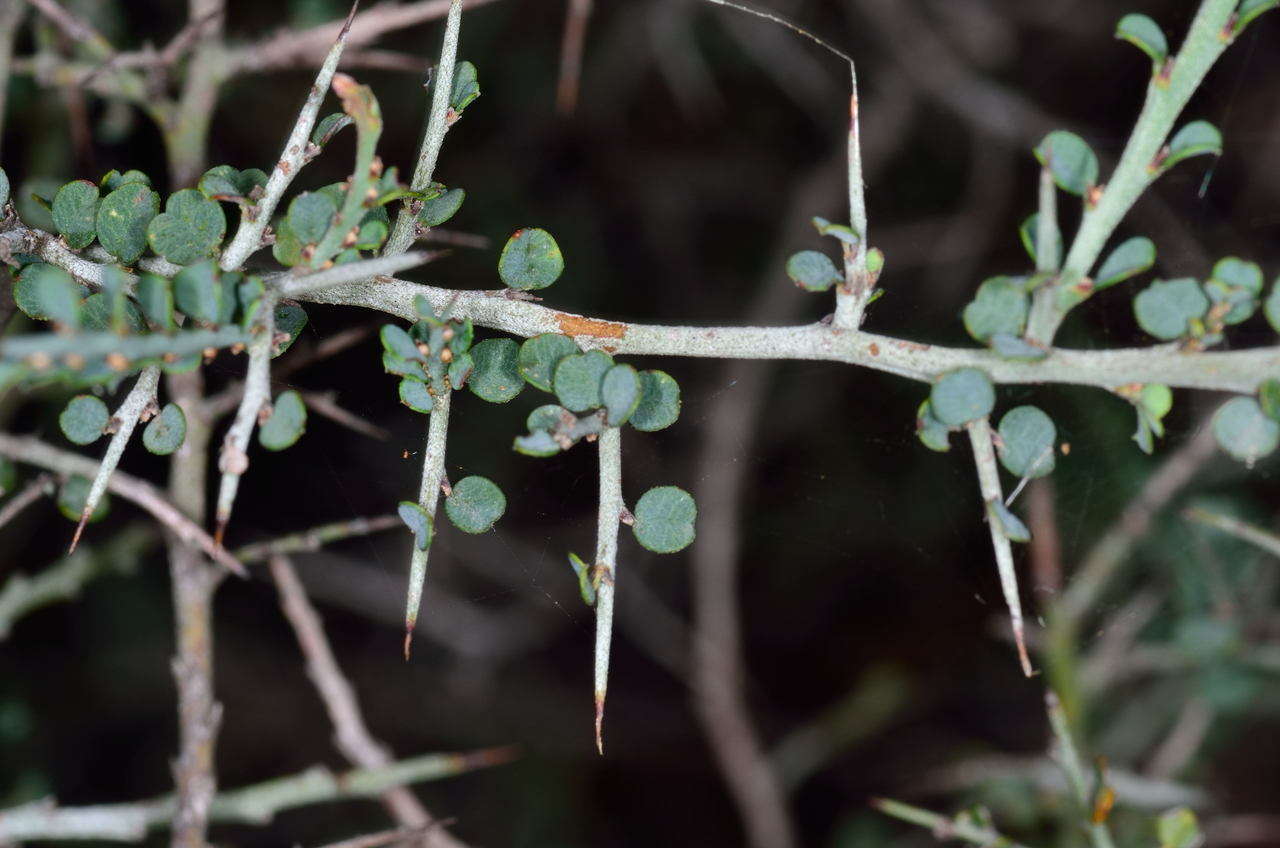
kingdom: Plantae
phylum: Tracheophyta
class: Magnoliopsida
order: Fabales
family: Fabaceae
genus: Bossiaea
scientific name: Bossiaea obcordata
